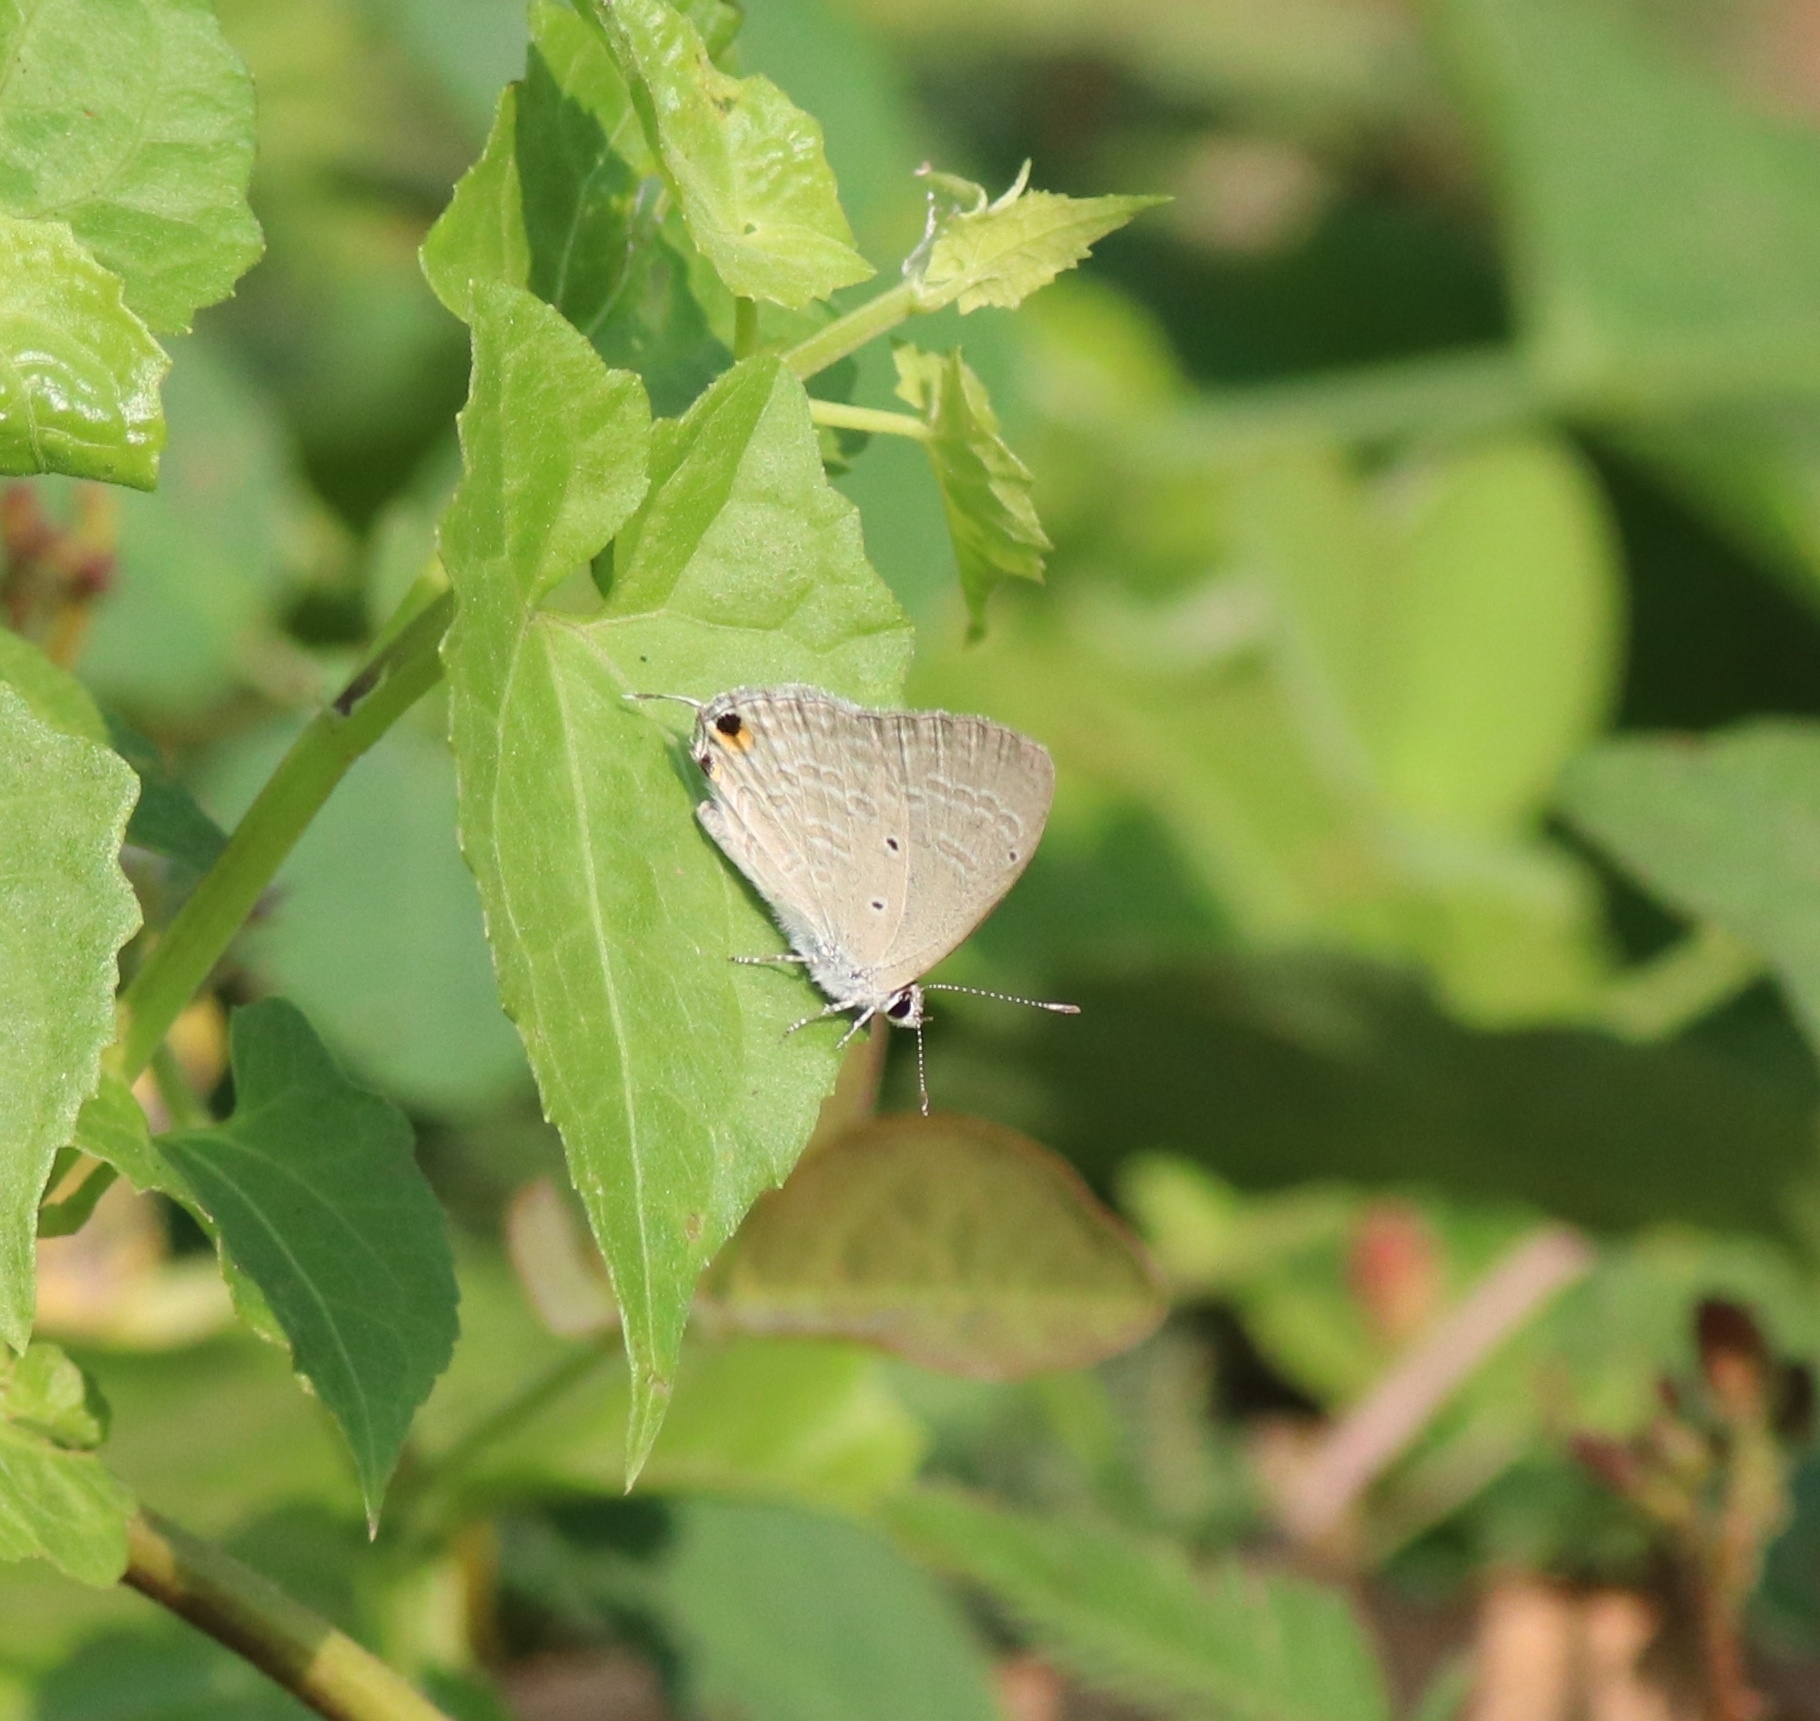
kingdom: Animalia
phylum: Arthropoda
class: Insecta
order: Lepidoptera
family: Lycaenidae
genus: Catochrysops
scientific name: Catochrysops strabo
